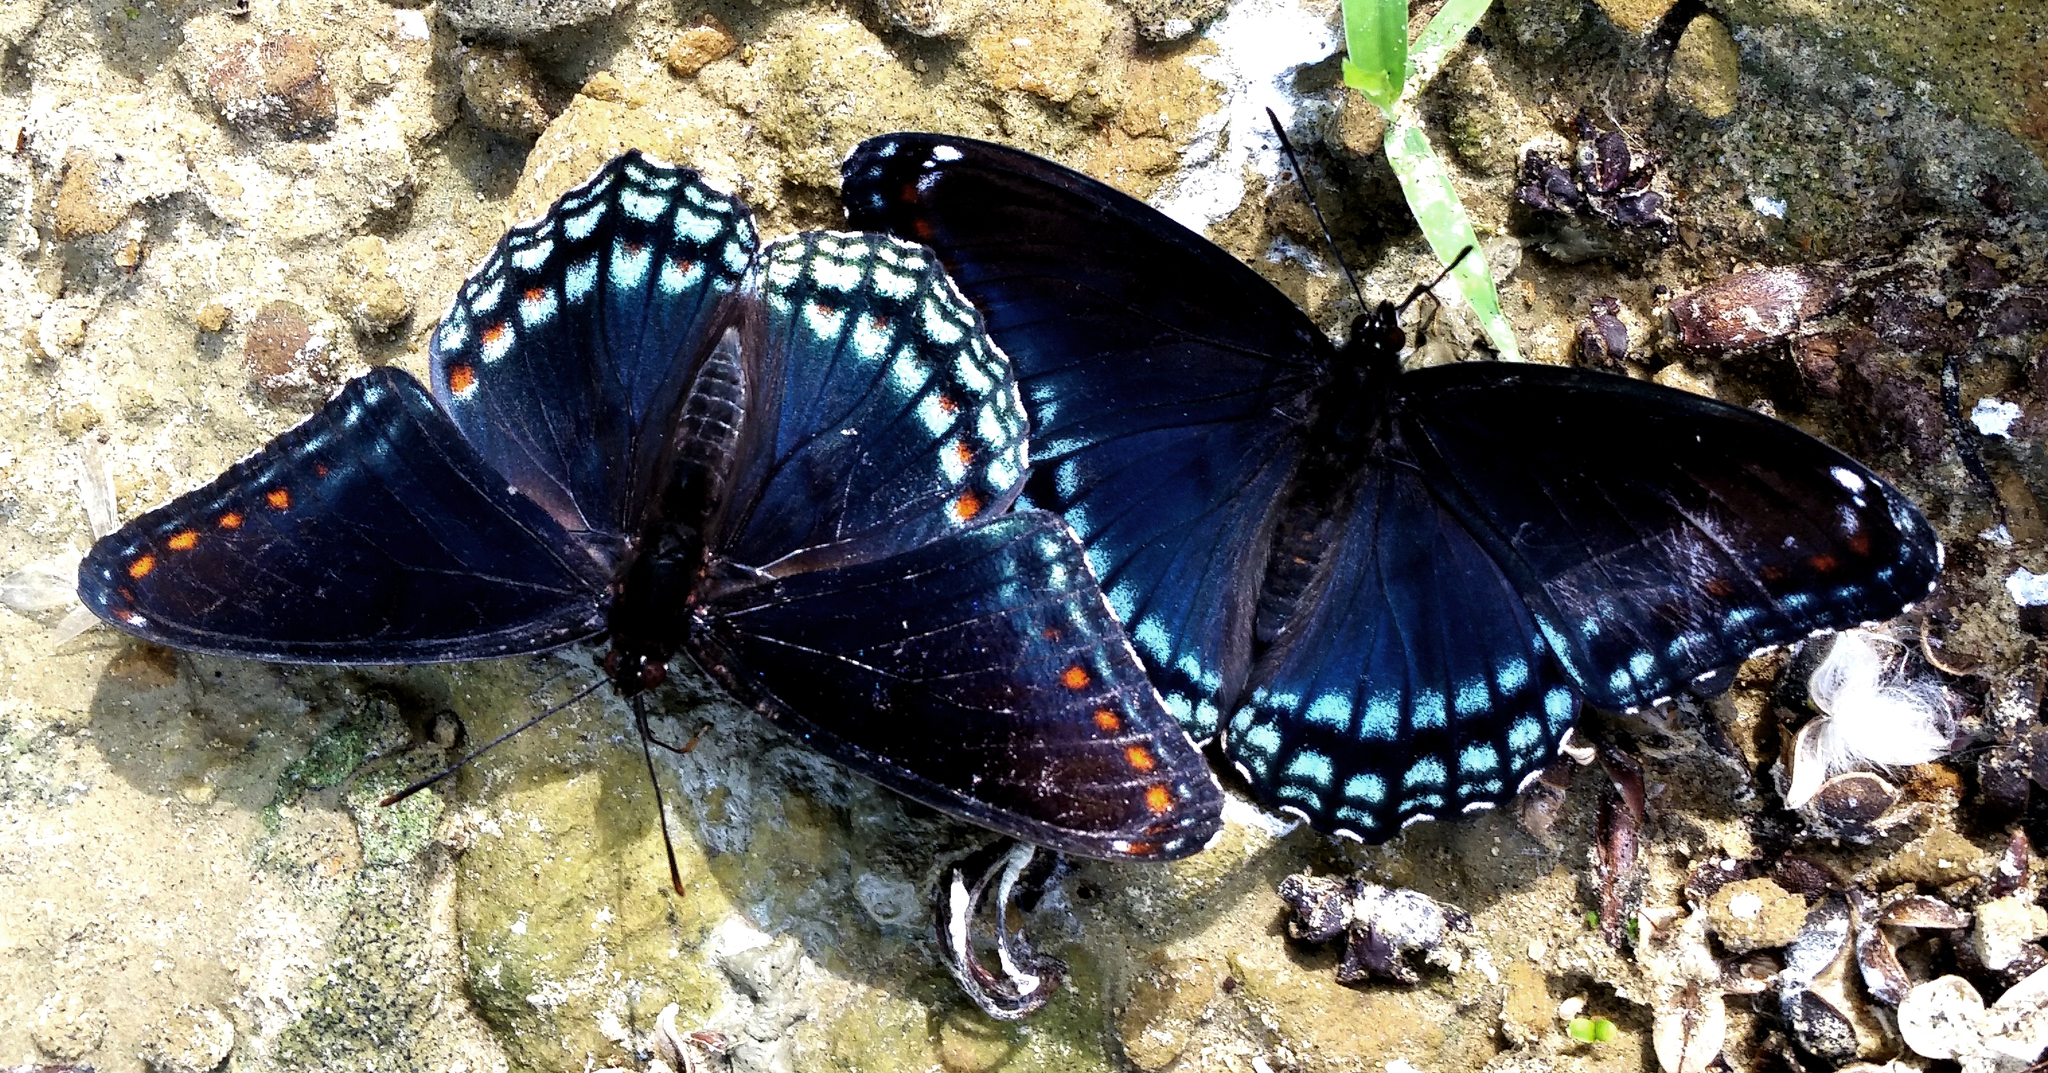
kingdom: Animalia
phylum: Arthropoda
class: Insecta
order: Lepidoptera
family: Nymphalidae
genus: Limenitis
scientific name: Limenitis astyanax
